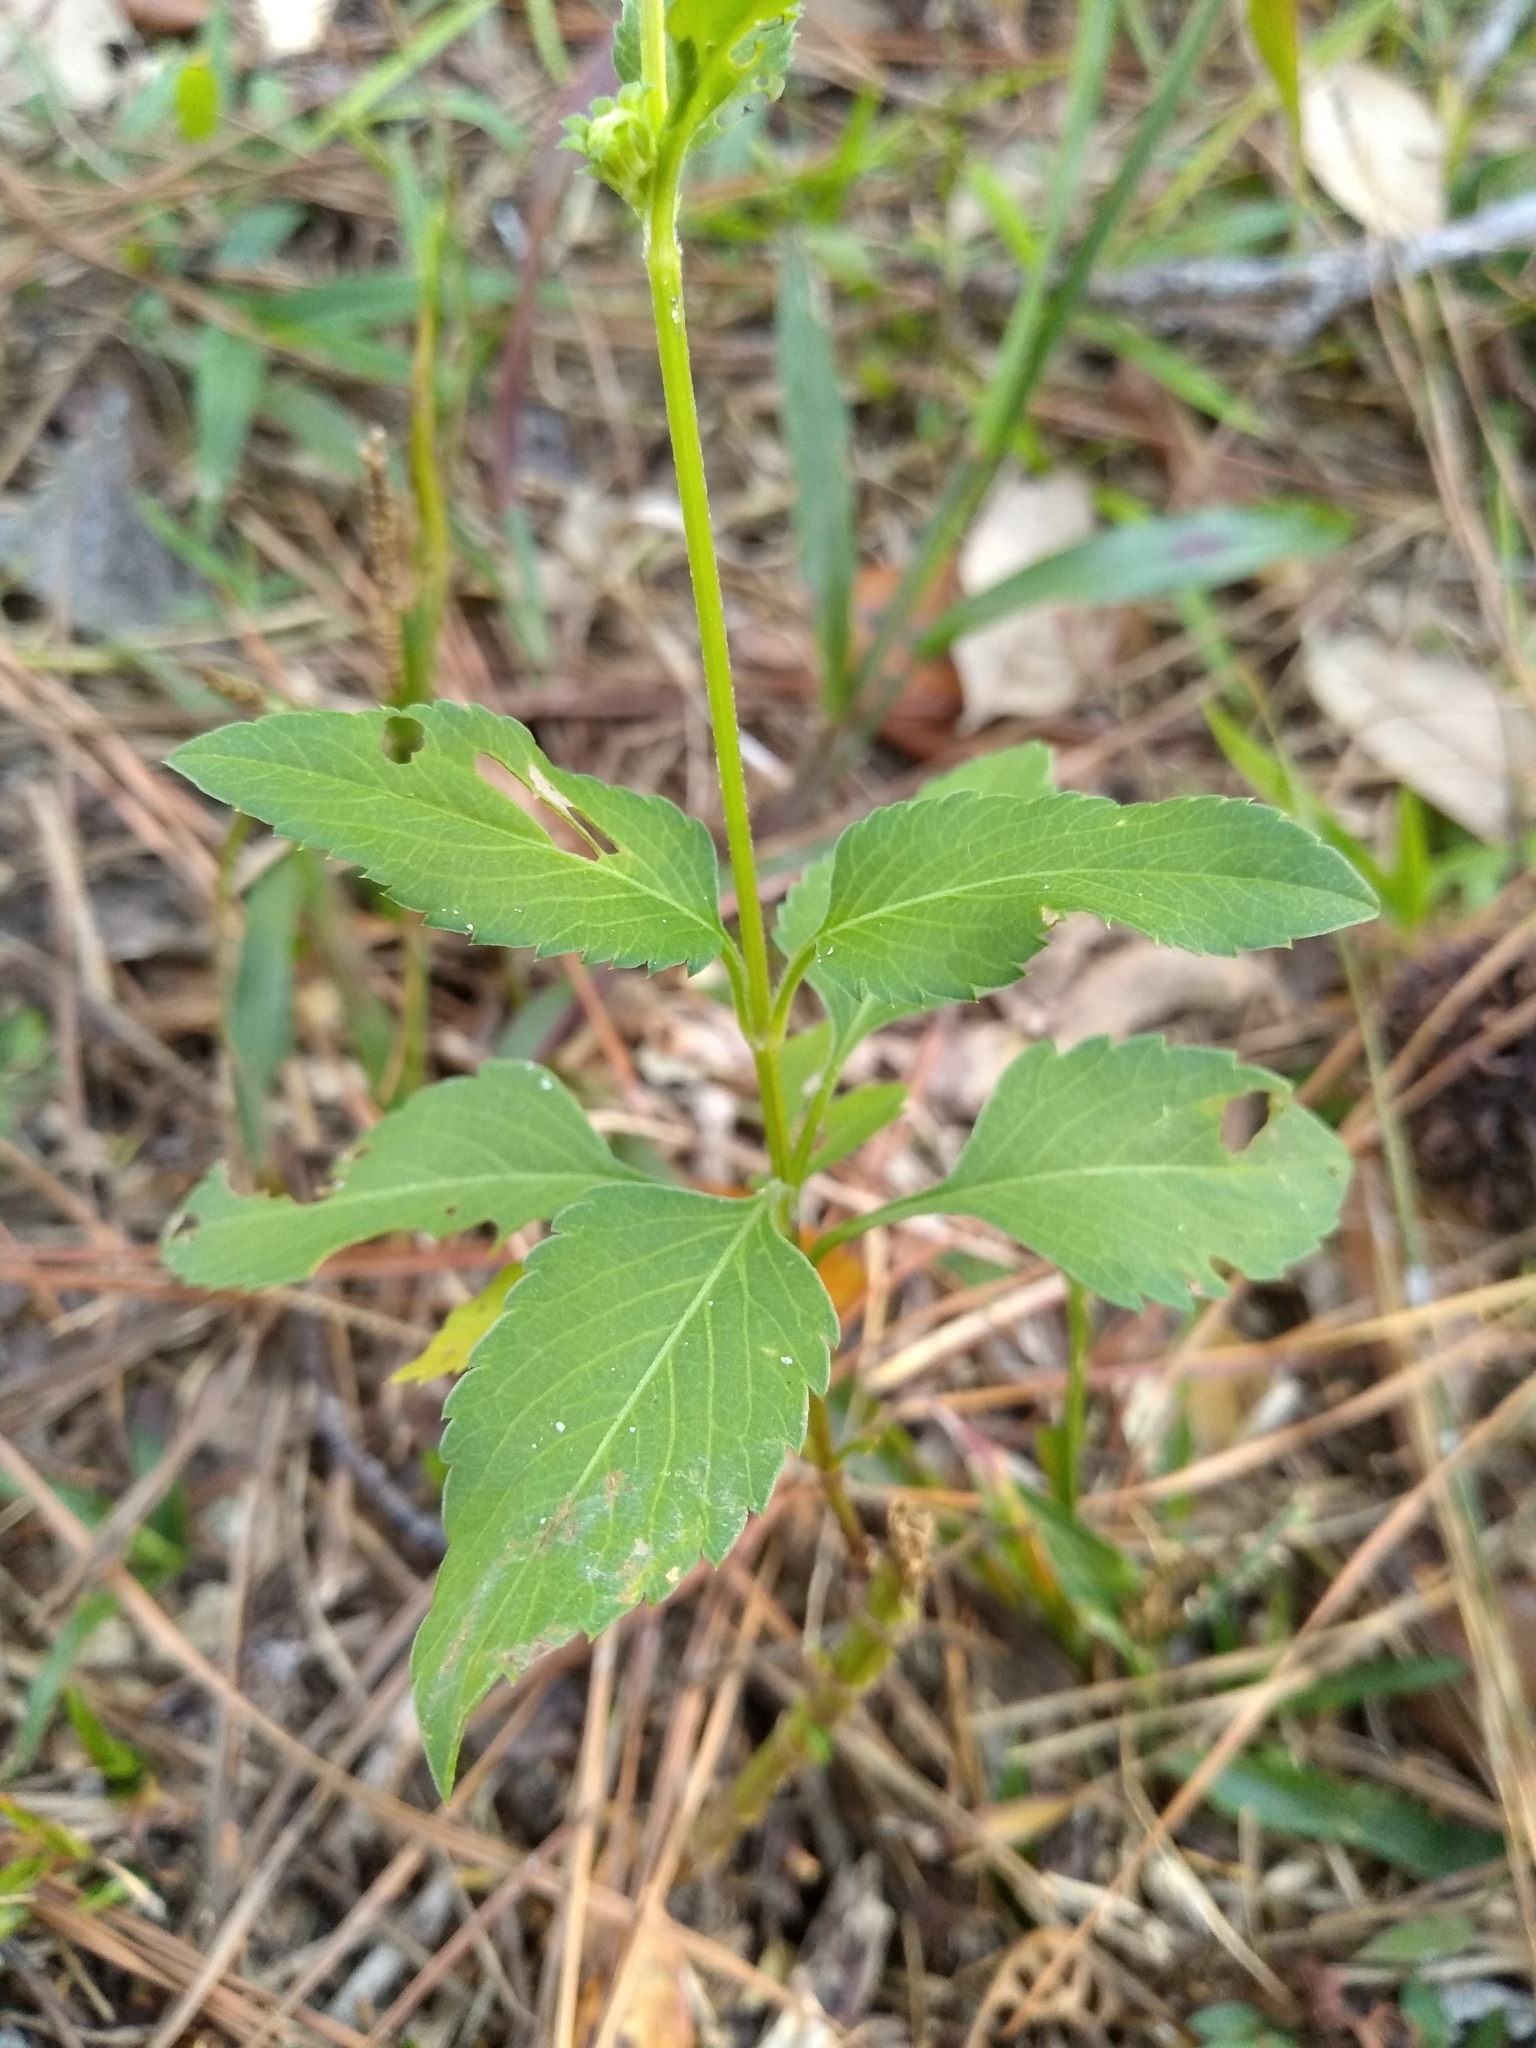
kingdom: Plantae
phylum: Tracheophyta
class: Magnoliopsida
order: Asterales
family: Asteraceae
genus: Bidens
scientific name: Bidens alba
